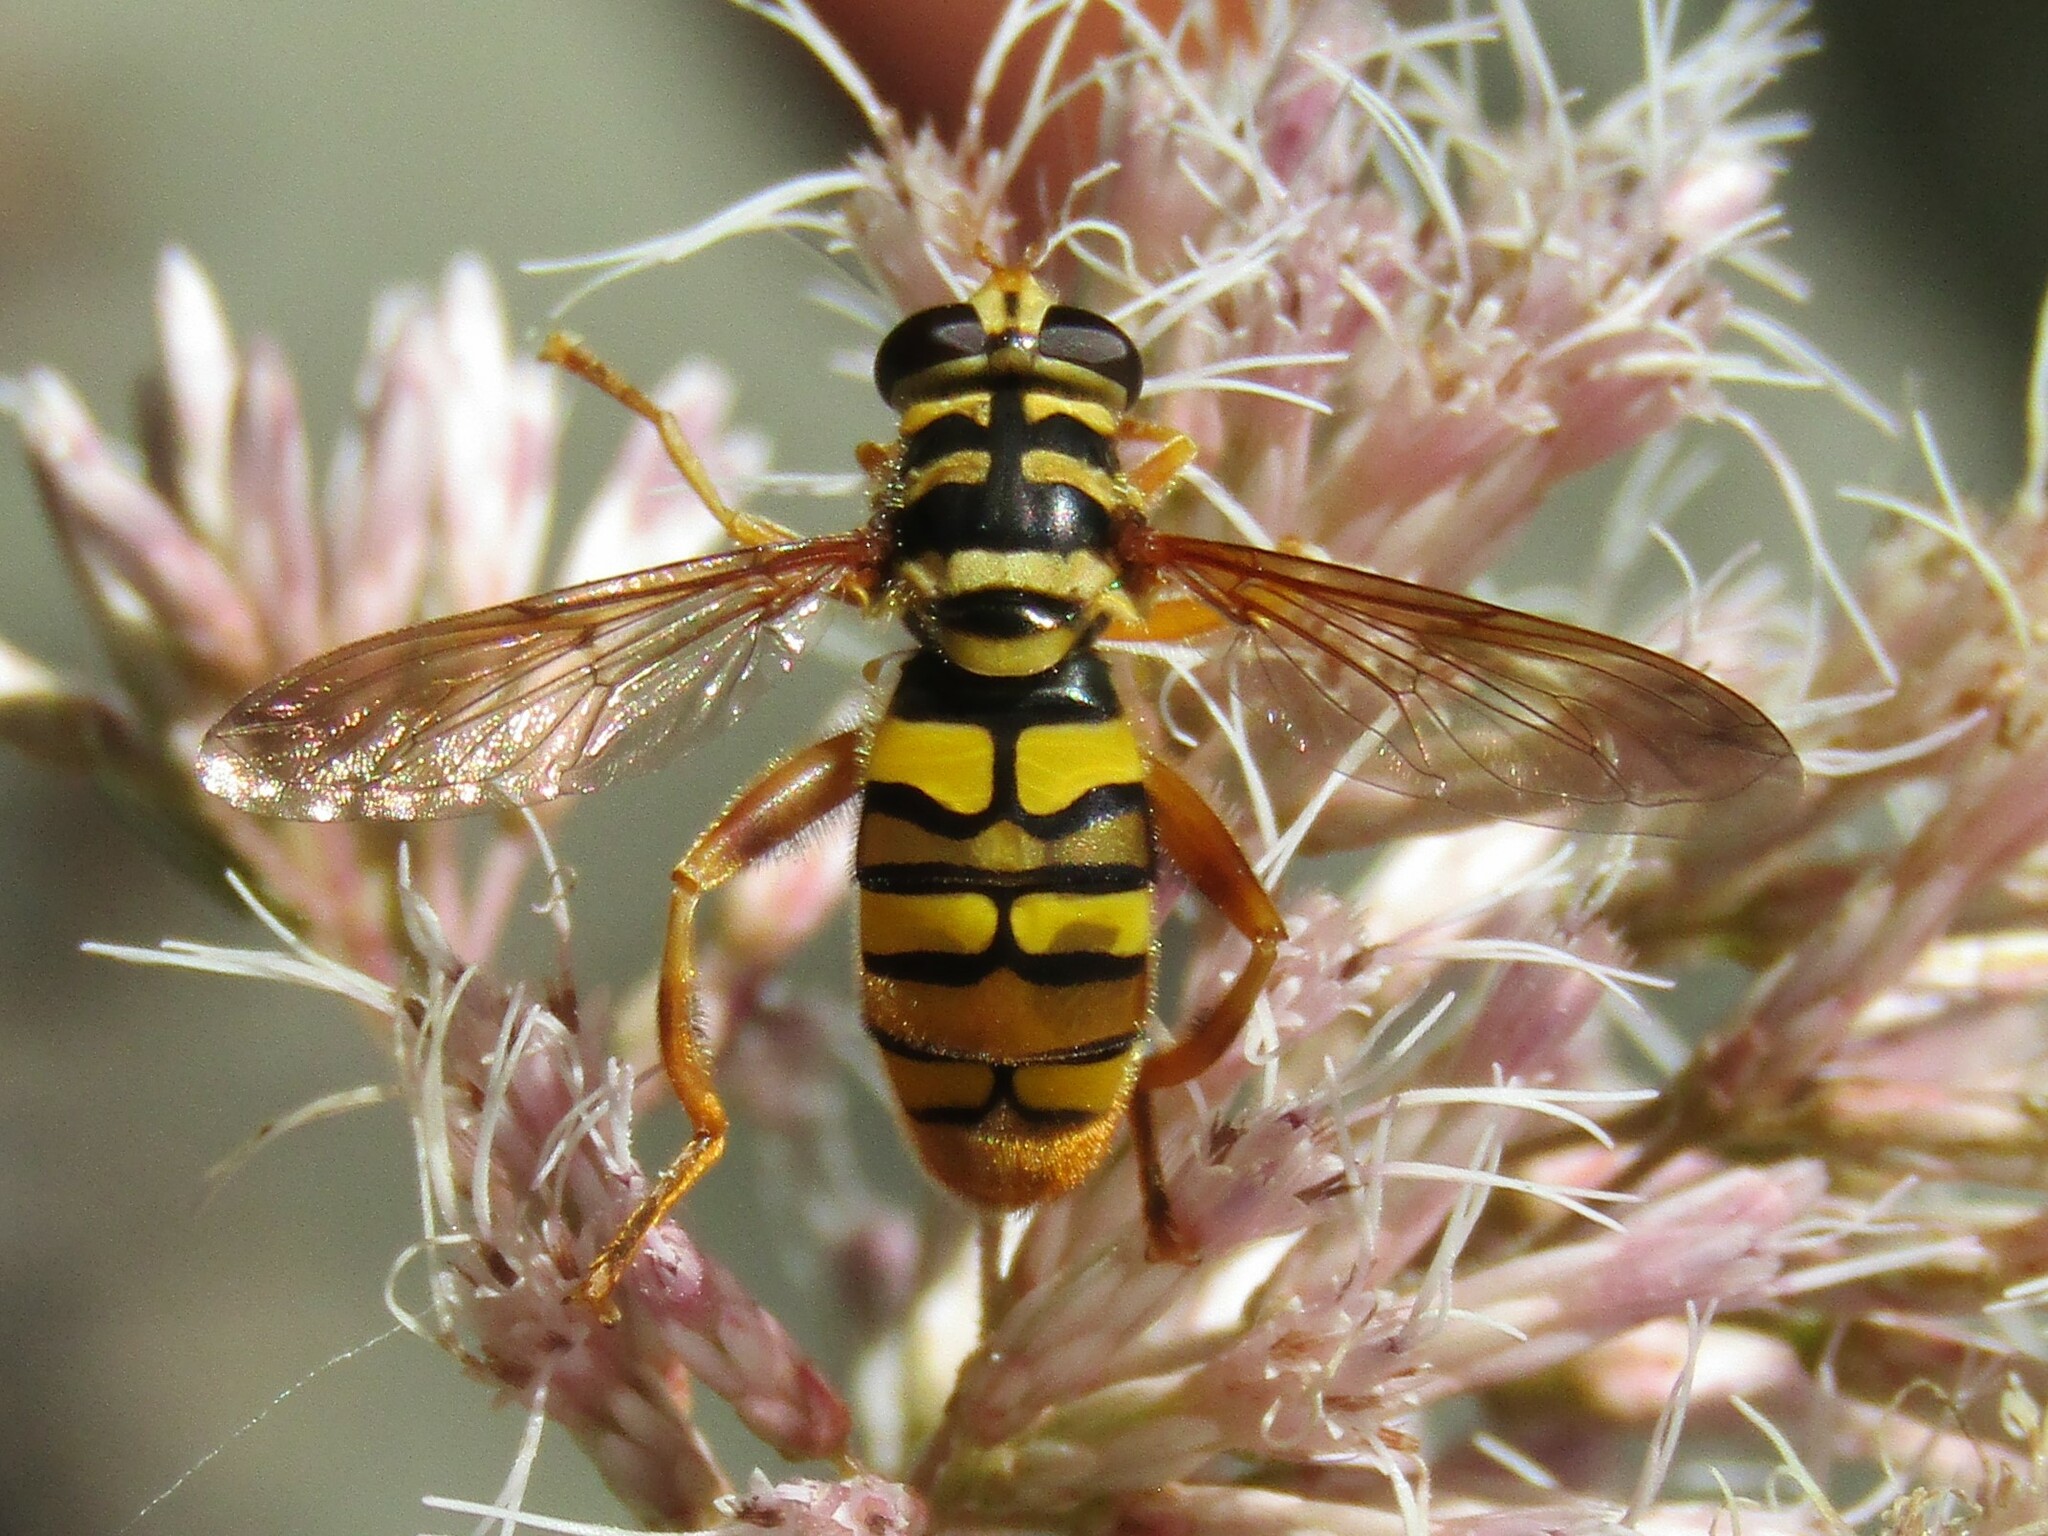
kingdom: Animalia
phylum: Arthropoda
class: Insecta
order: Diptera
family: Syrphidae
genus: Milesia
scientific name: Milesia virginiensis
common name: Virginia giant
